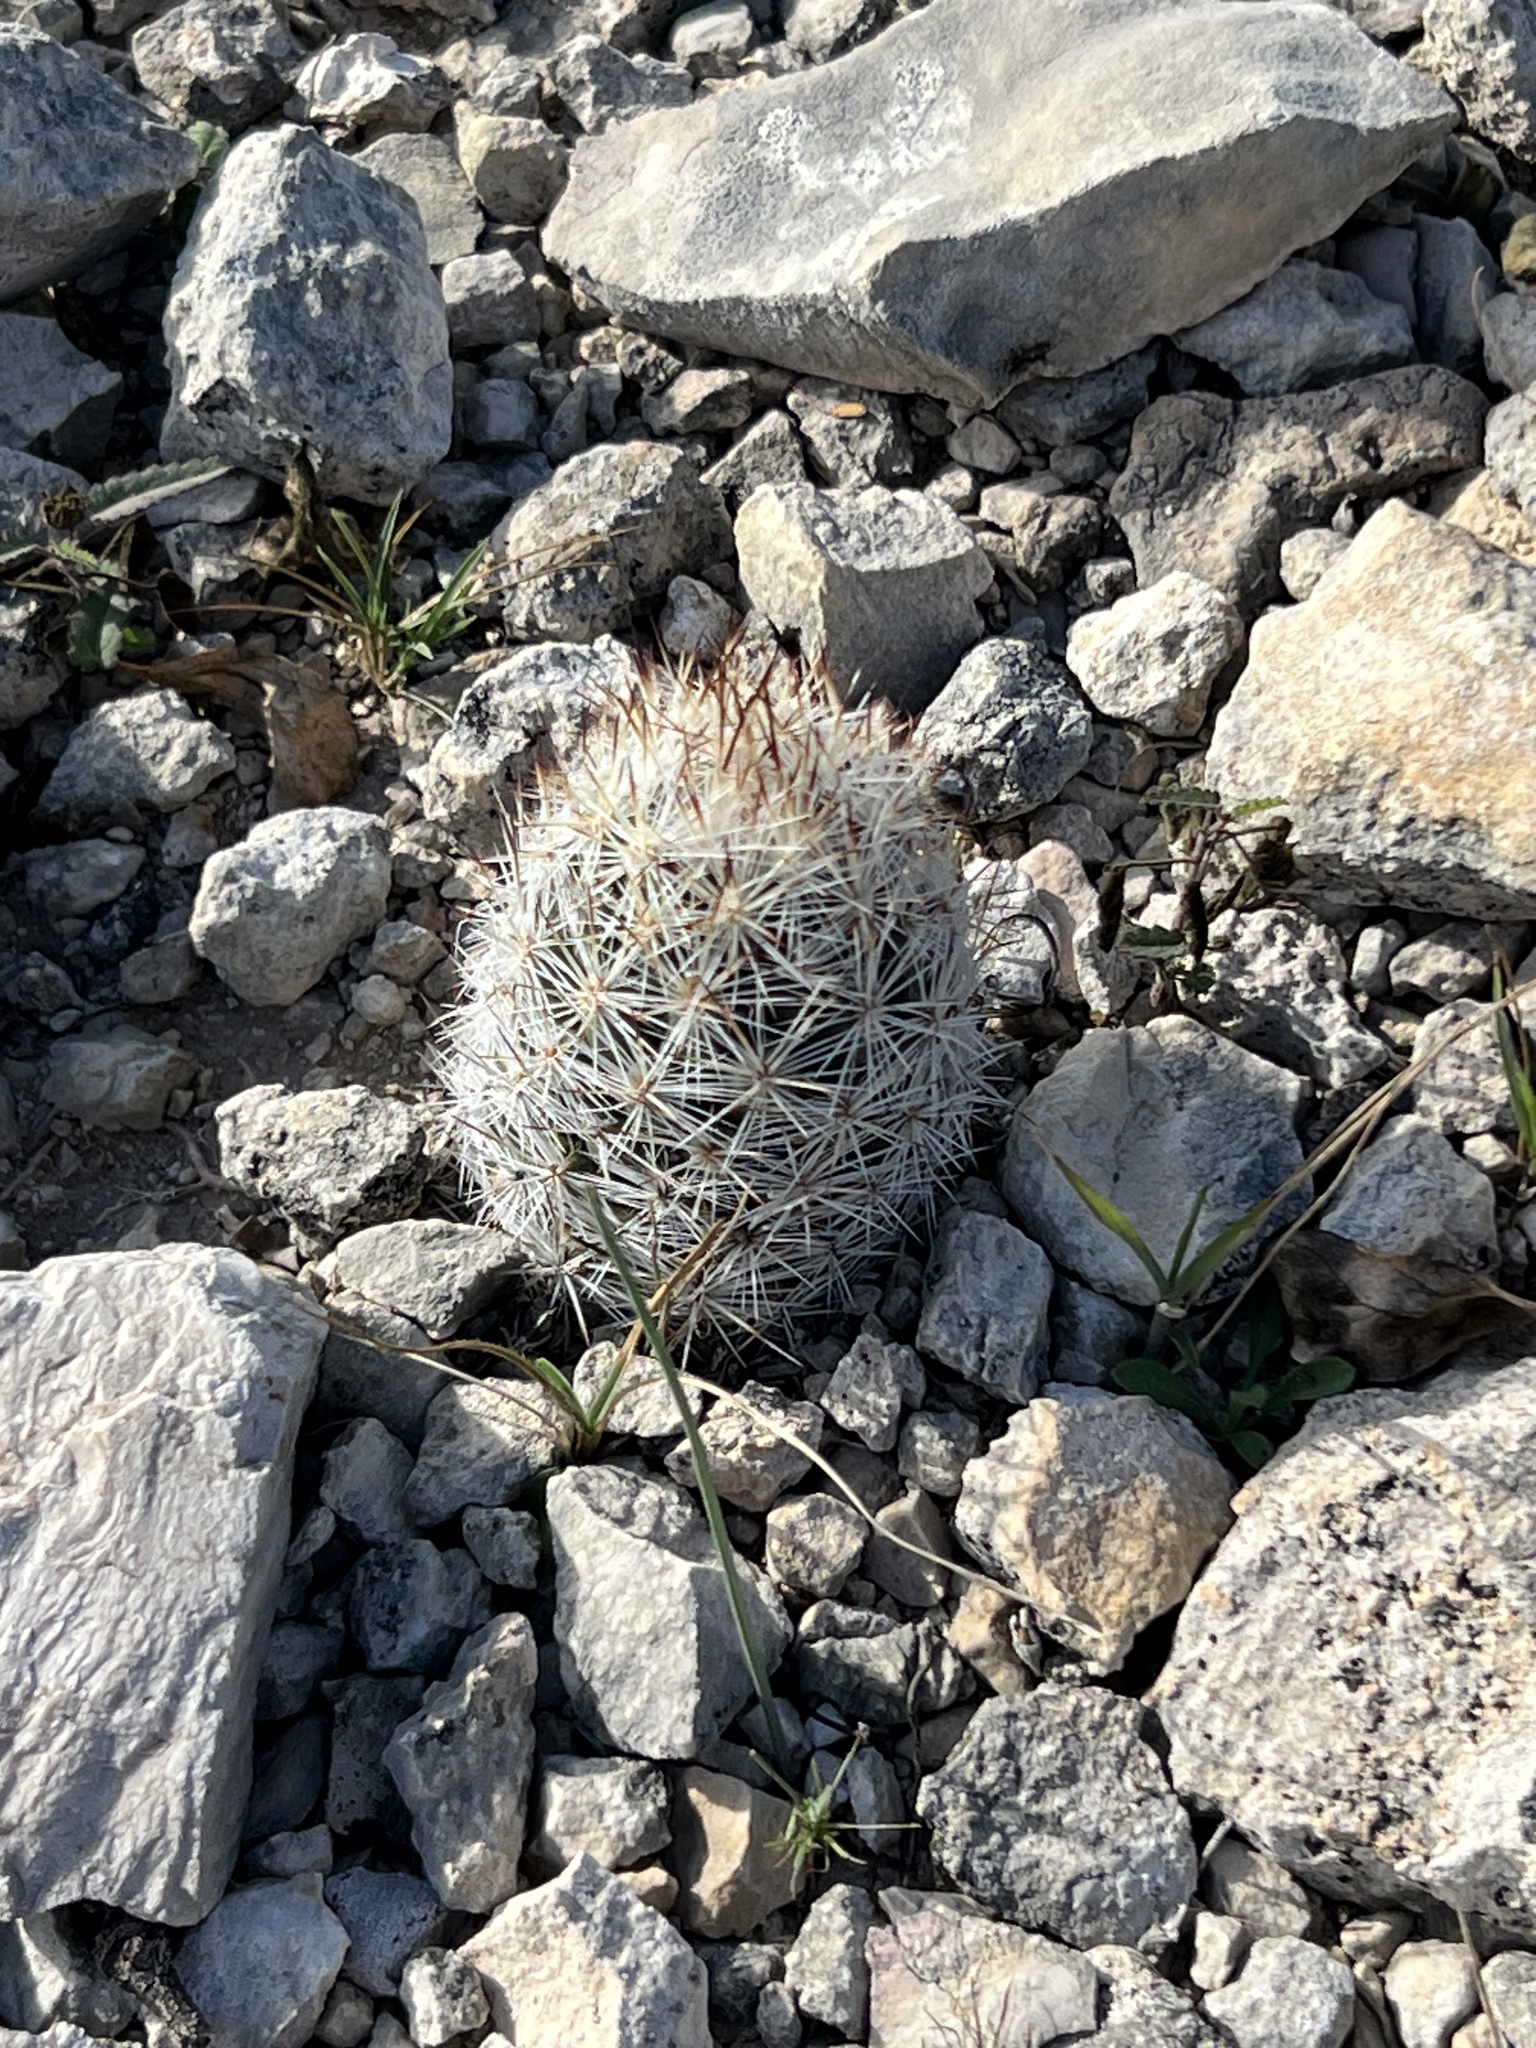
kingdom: Plantae
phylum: Tracheophyta
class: Magnoliopsida
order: Caryophyllales
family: Cactaceae
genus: Pelecyphora
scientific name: Pelecyphora emskoetteriana
